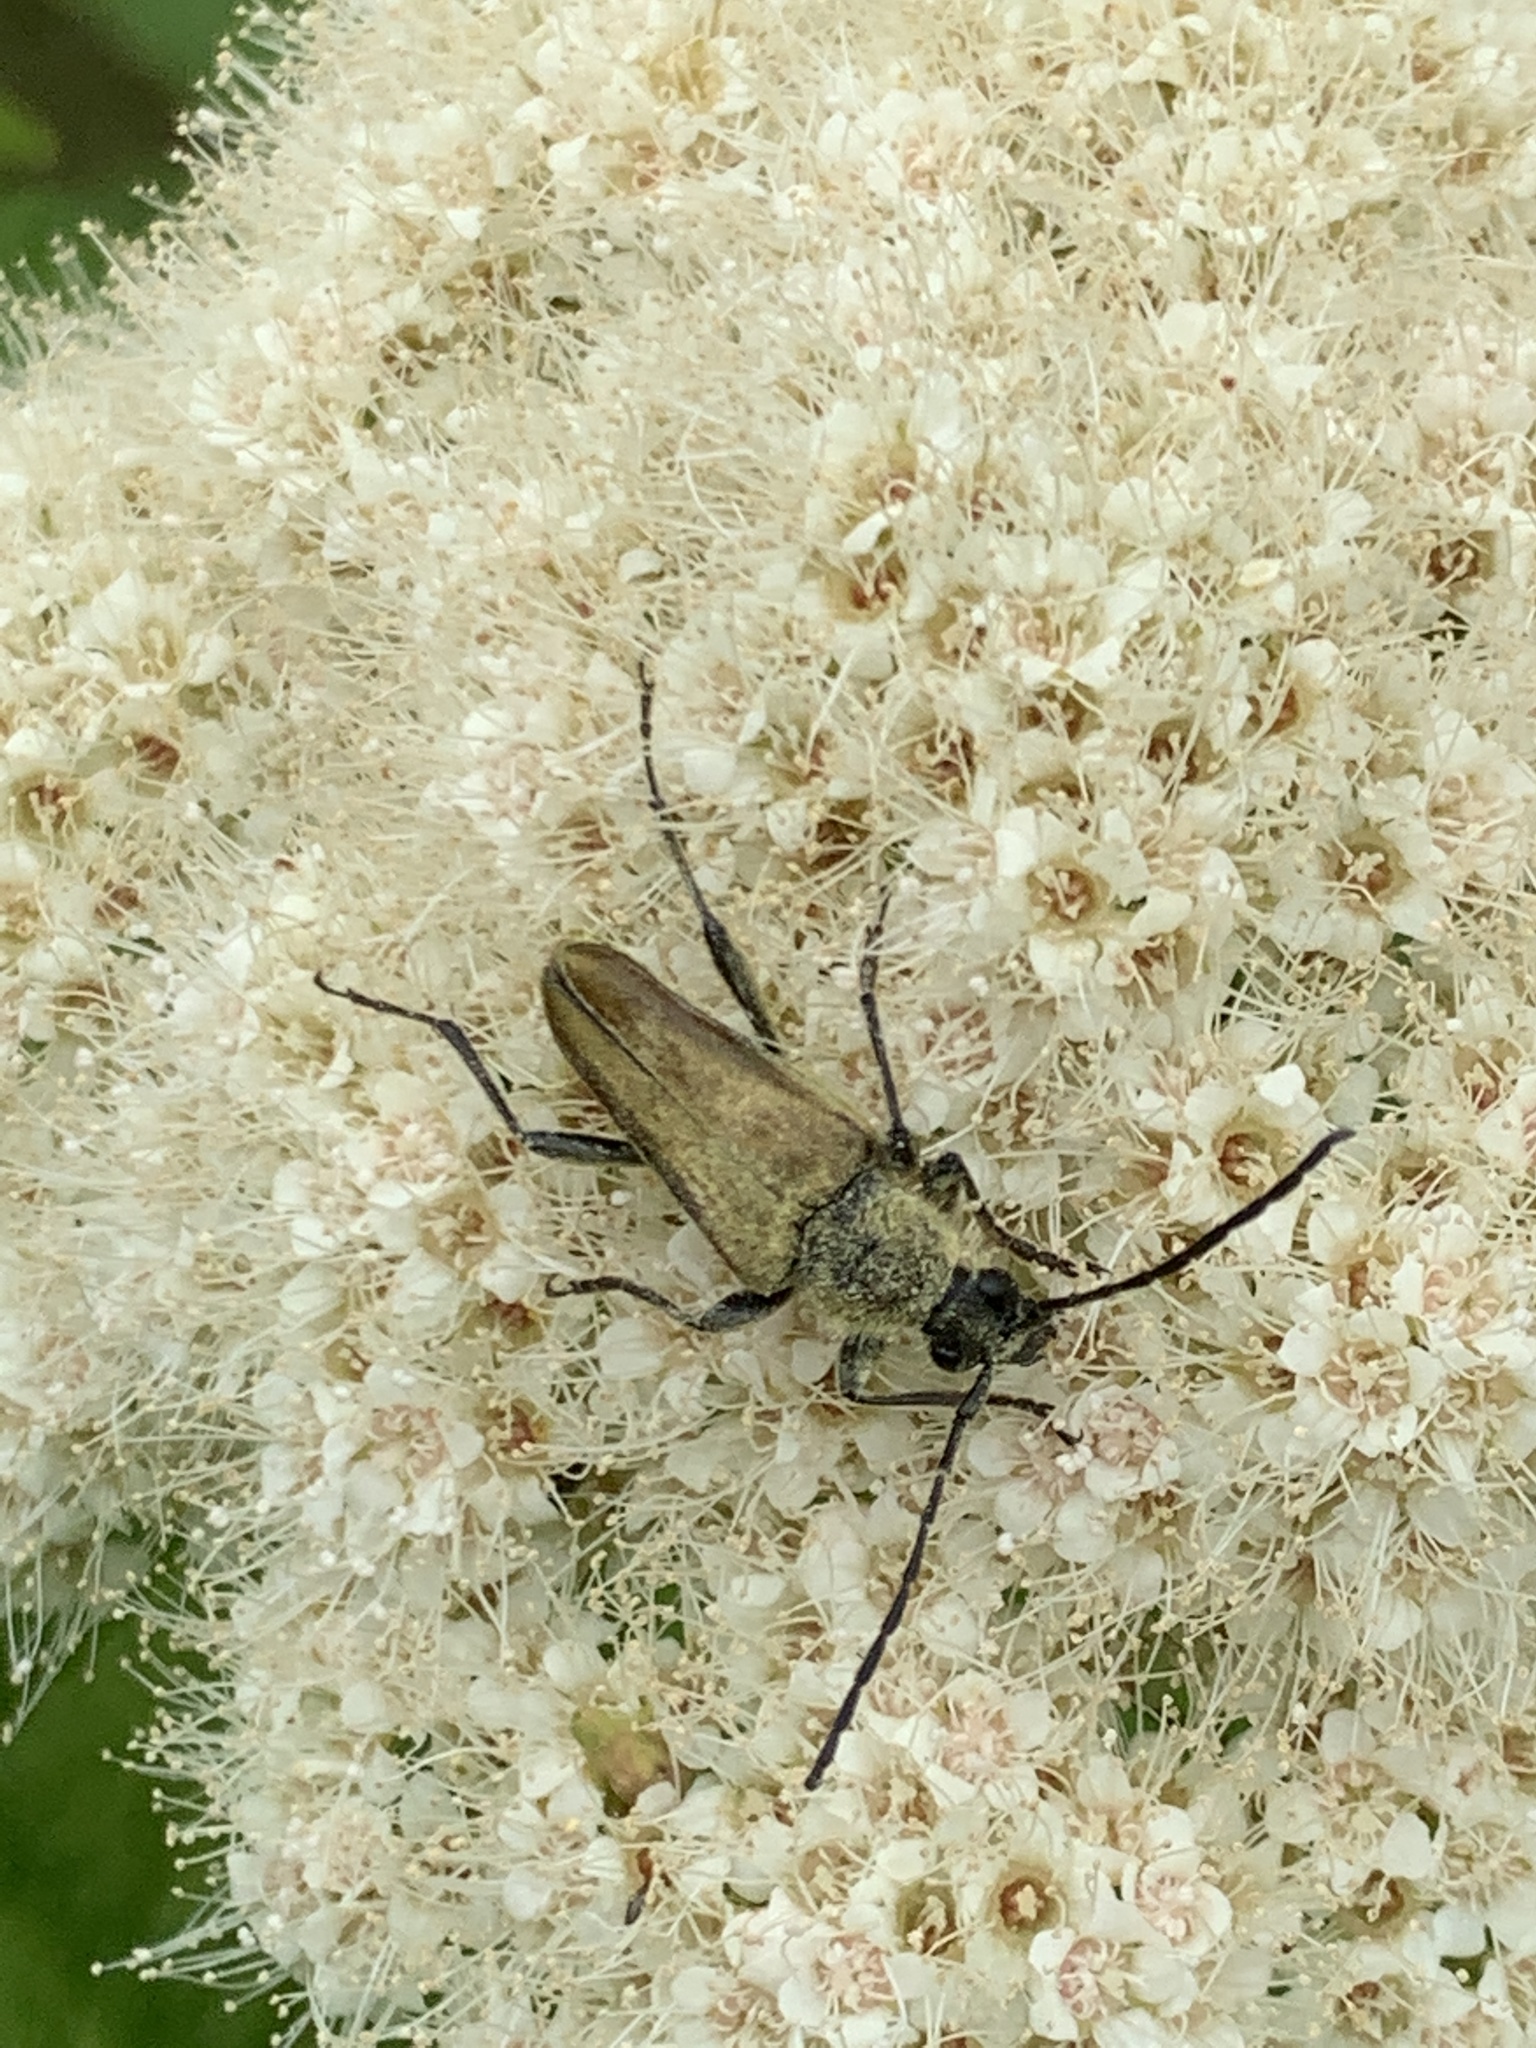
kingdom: Animalia
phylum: Arthropoda
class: Insecta
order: Coleoptera
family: Cerambycidae
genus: Cosmosalia
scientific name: Cosmosalia chrysocoma
